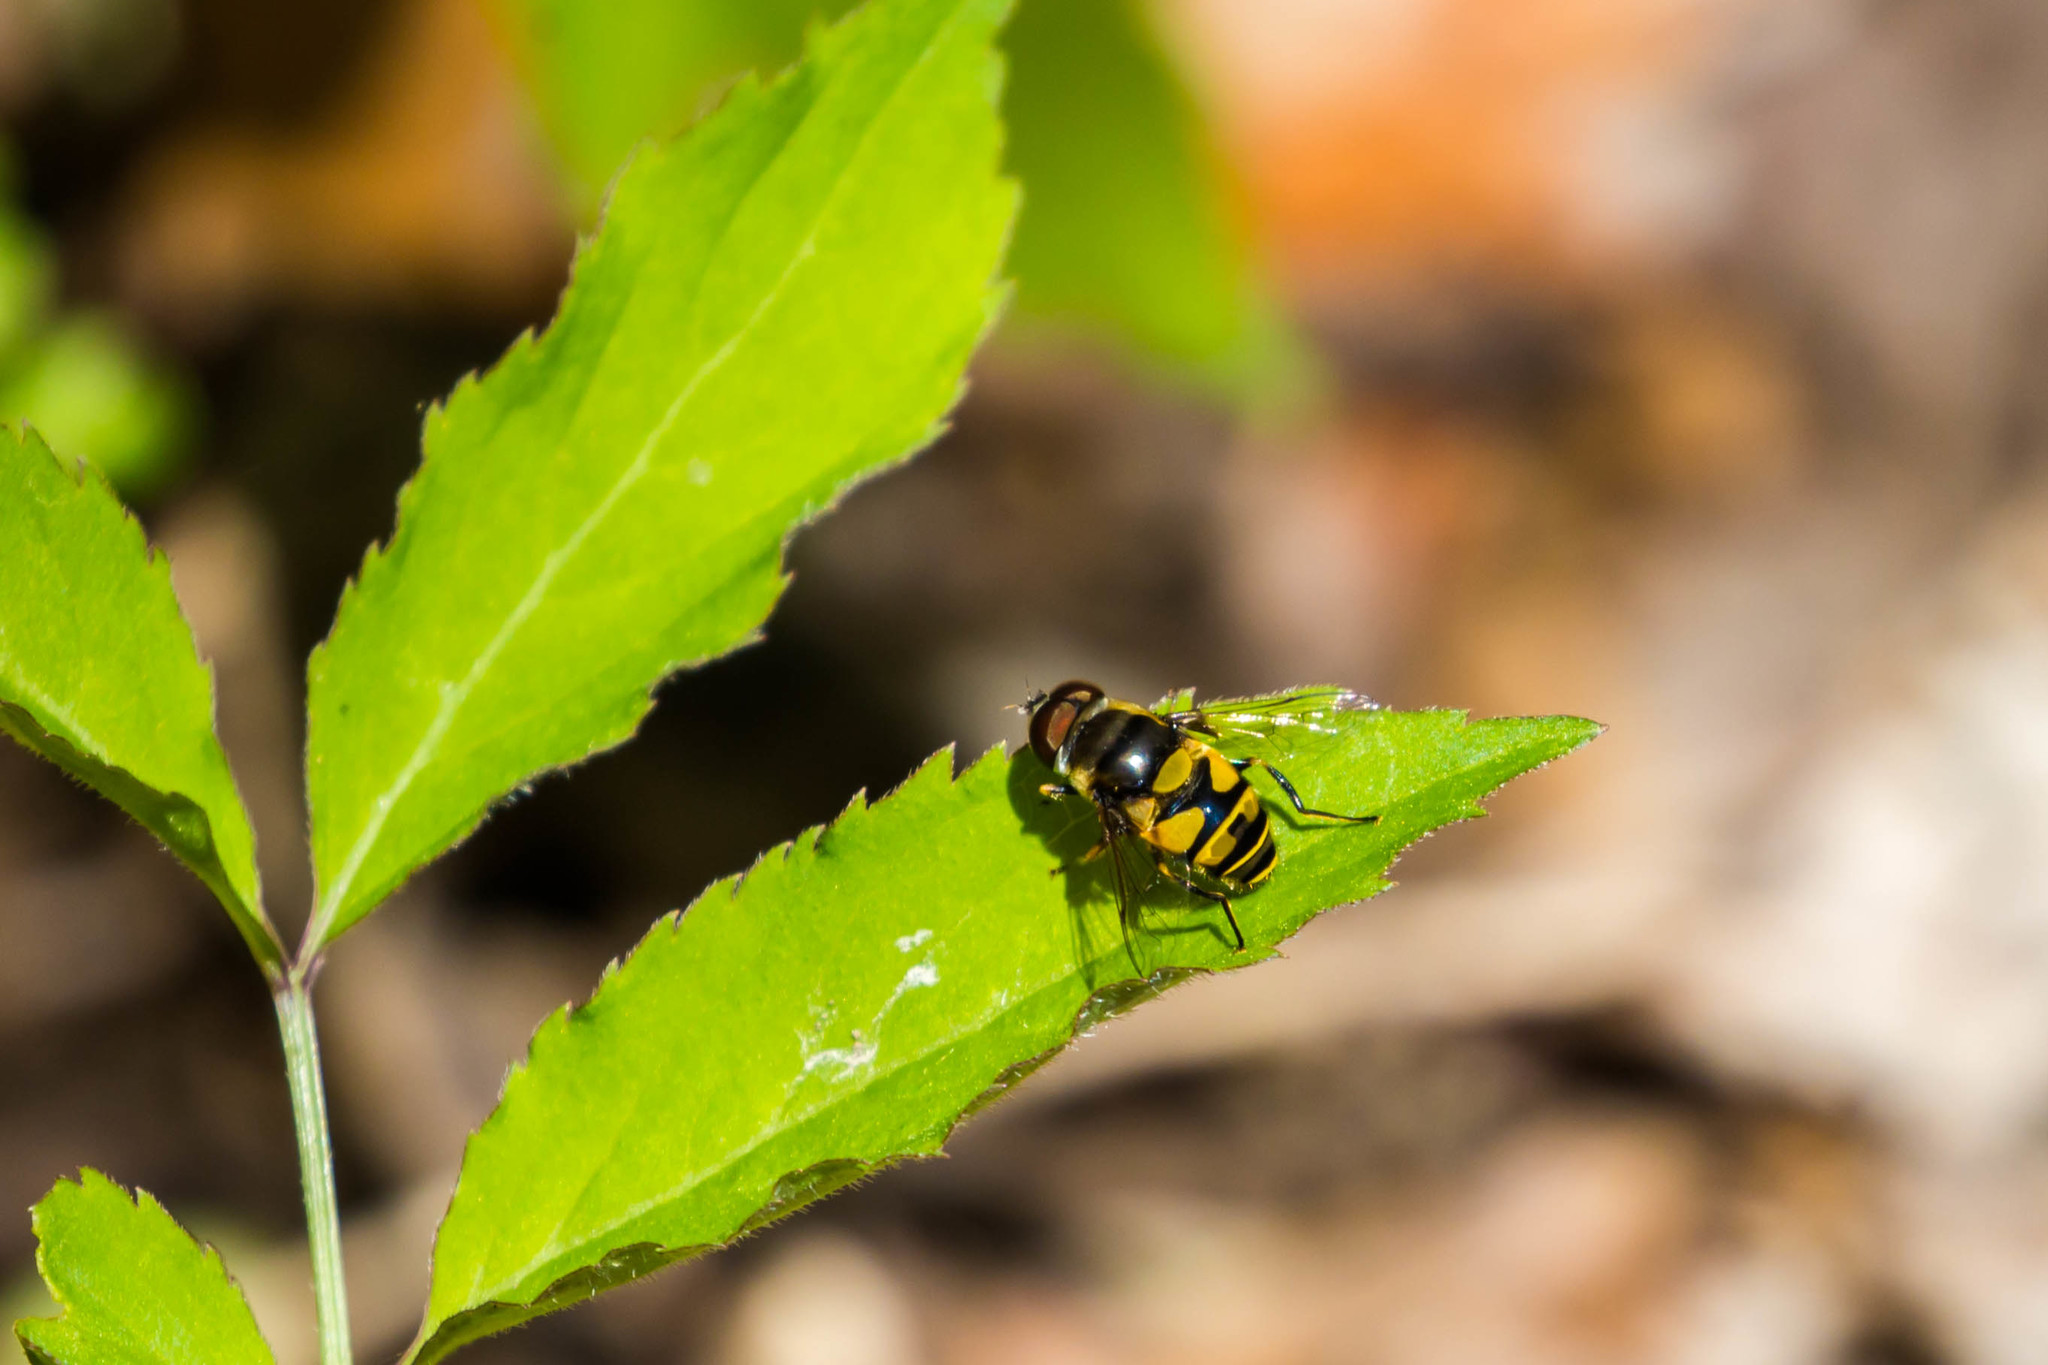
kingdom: Animalia
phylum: Arthropoda
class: Insecta
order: Diptera
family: Syrphidae
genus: Eristalis
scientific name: Eristalis transversa
